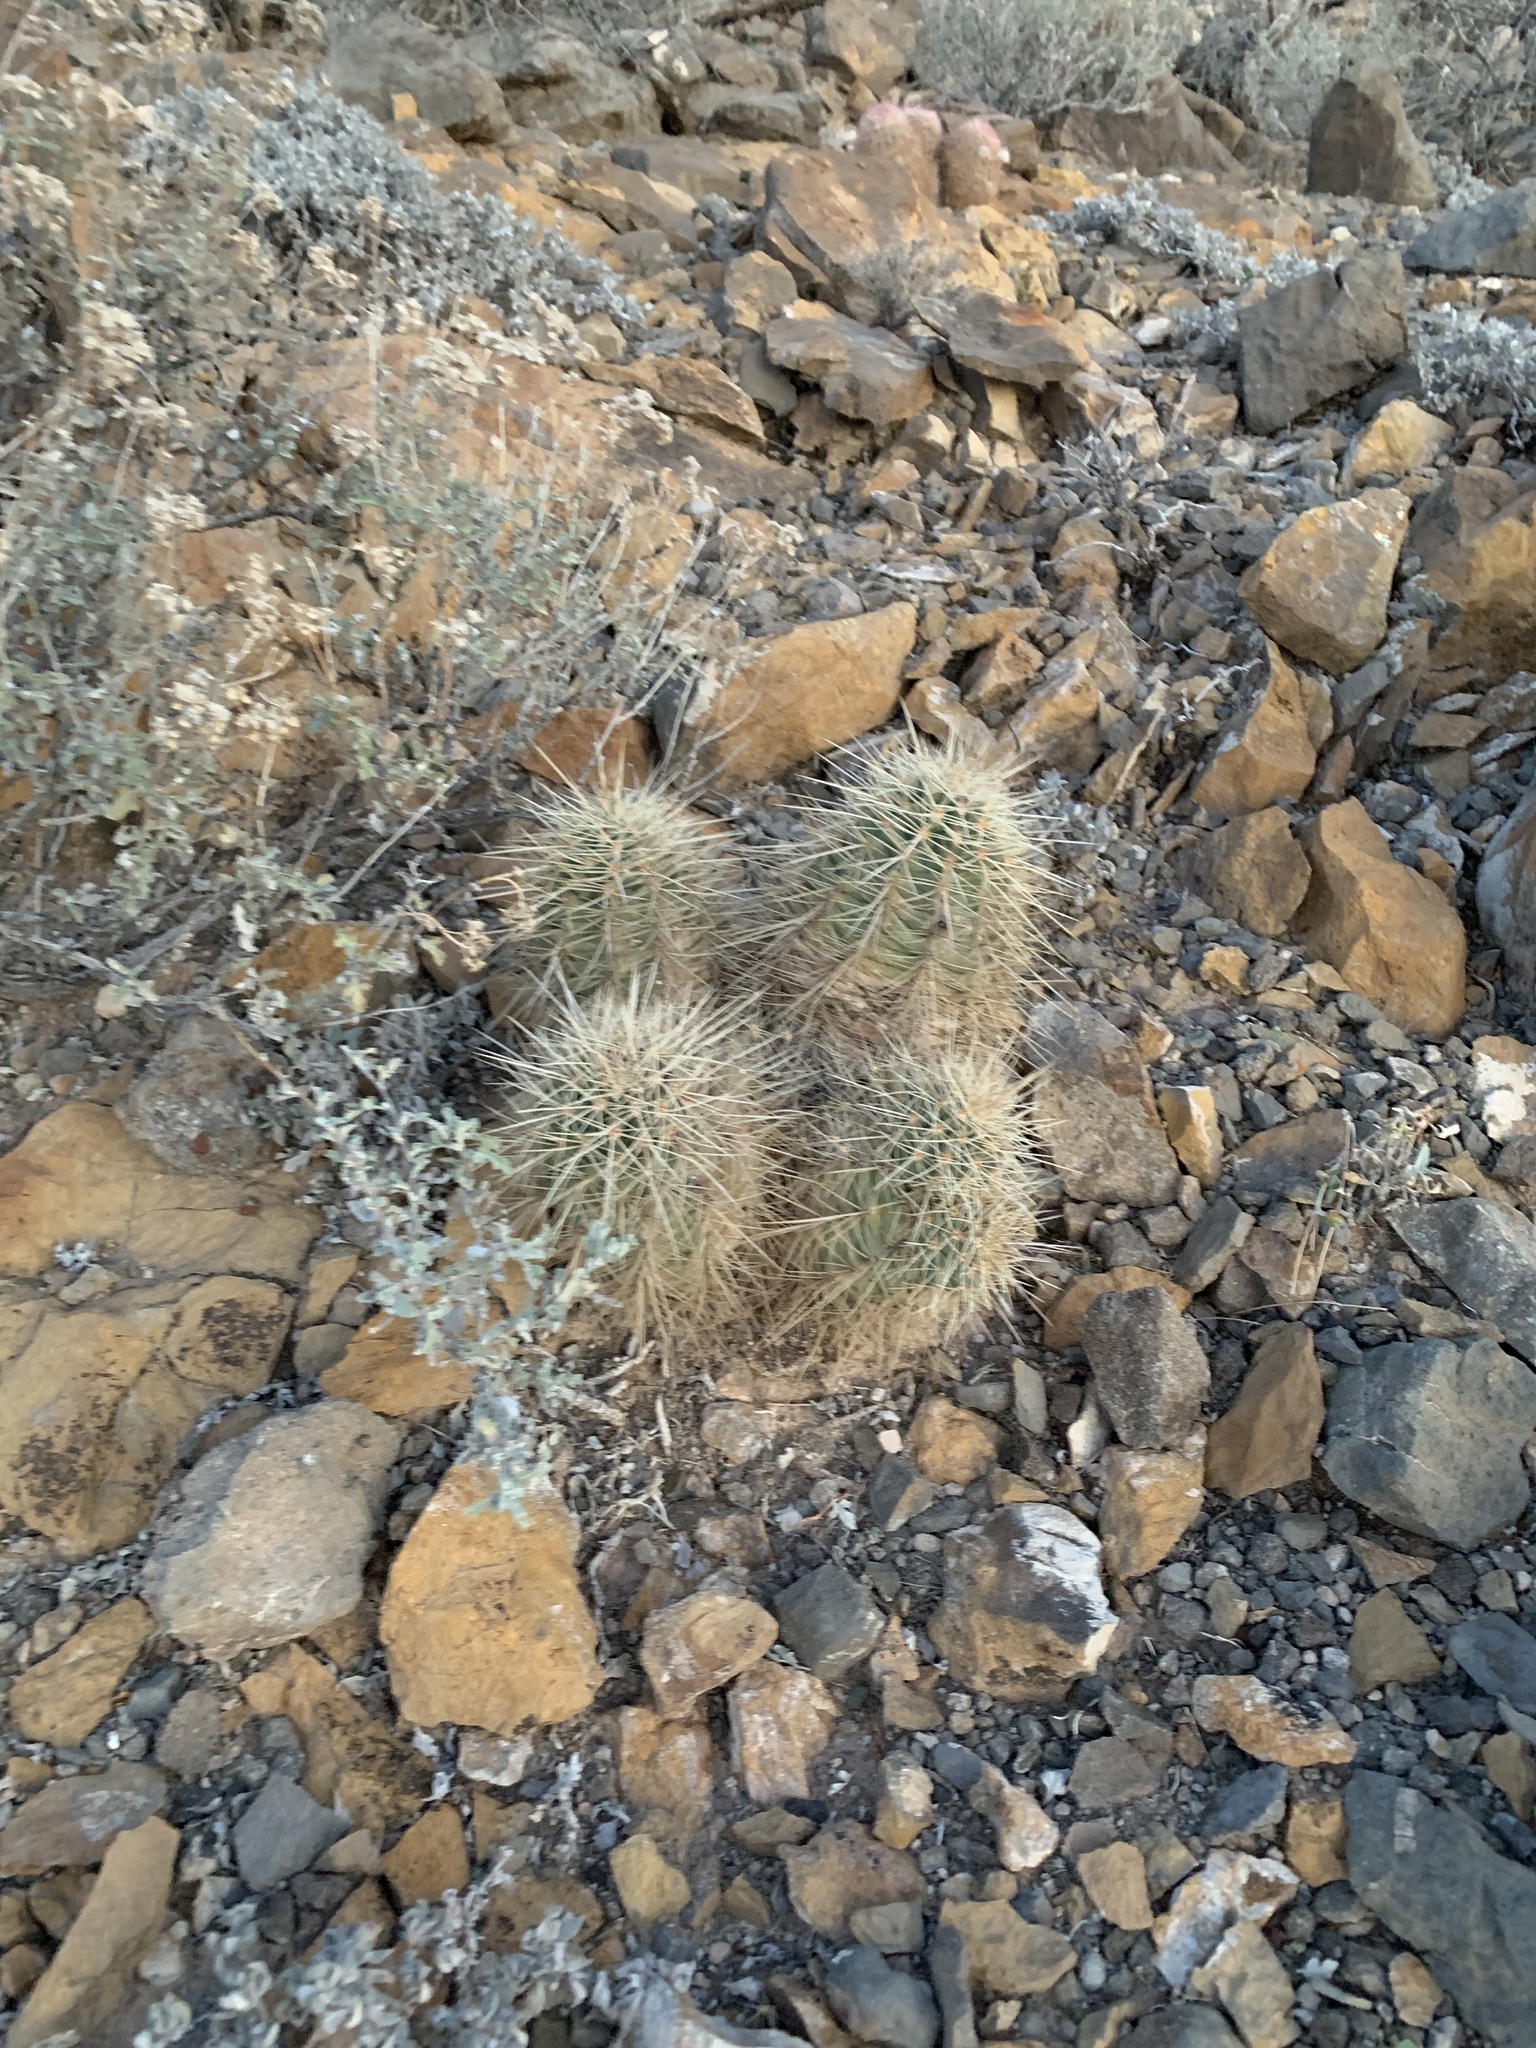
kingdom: Plantae
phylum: Tracheophyta
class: Magnoliopsida
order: Caryophyllales
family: Cactaceae
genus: Echinocereus
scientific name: Echinocereus coccineus
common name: Scarlet hedgehog cactus
